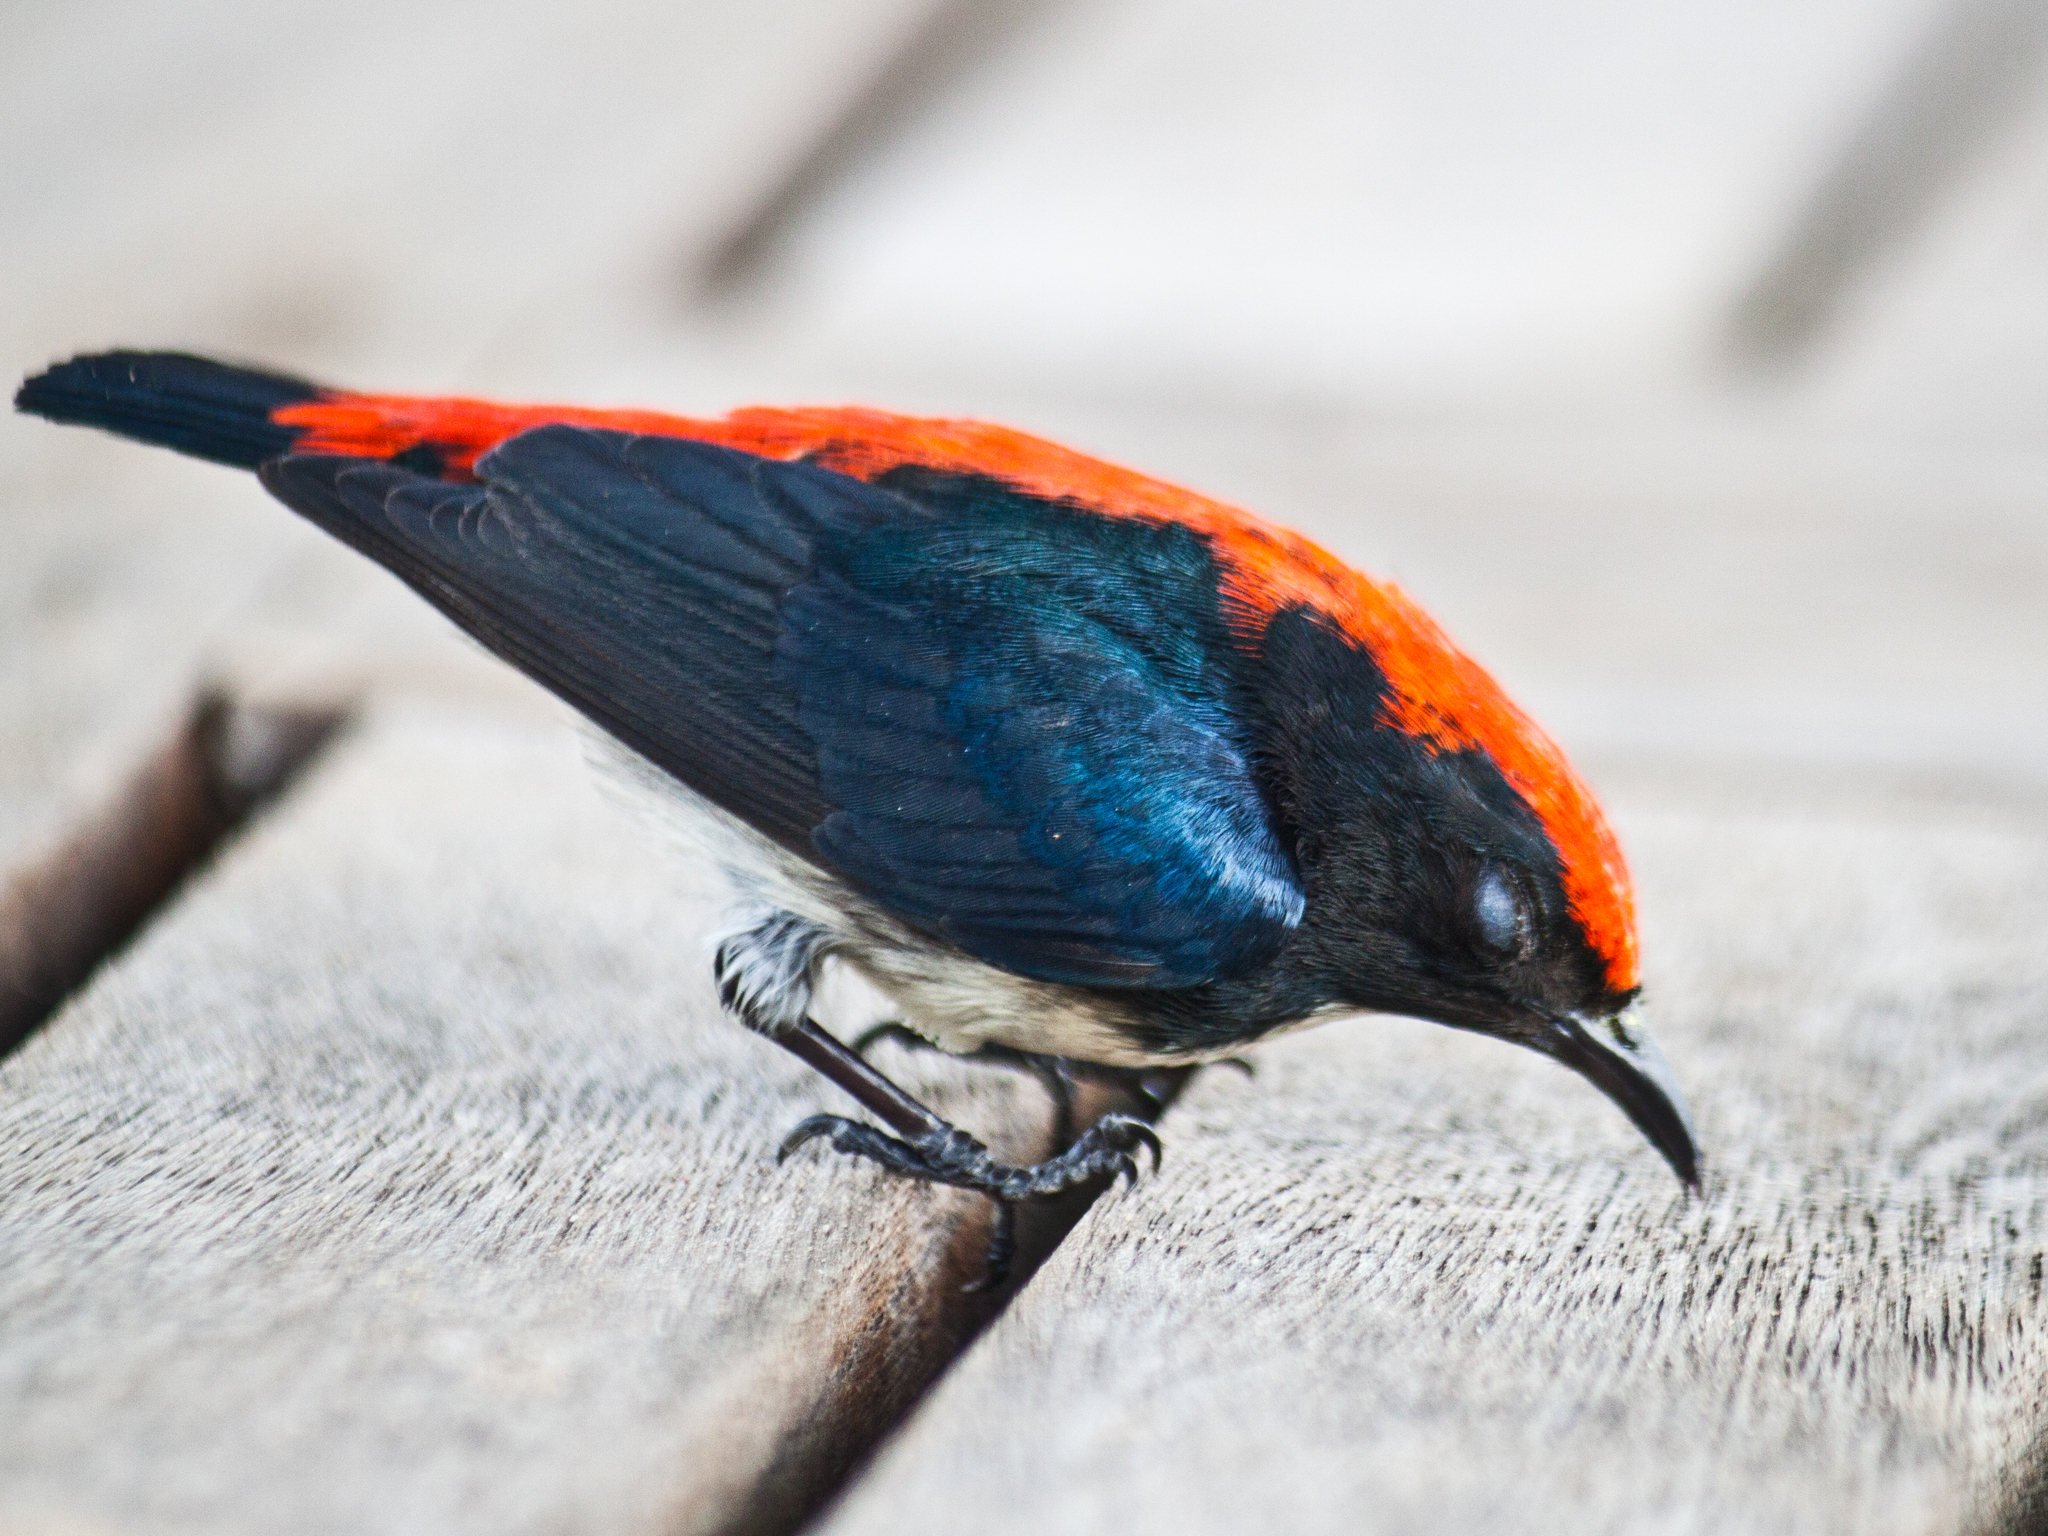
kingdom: Animalia
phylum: Chordata
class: Aves
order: Passeriformes
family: Dicaeidae
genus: Dicaeum
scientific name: Dicaeum cruentatum
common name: Scarlet-backed flowerpecker
